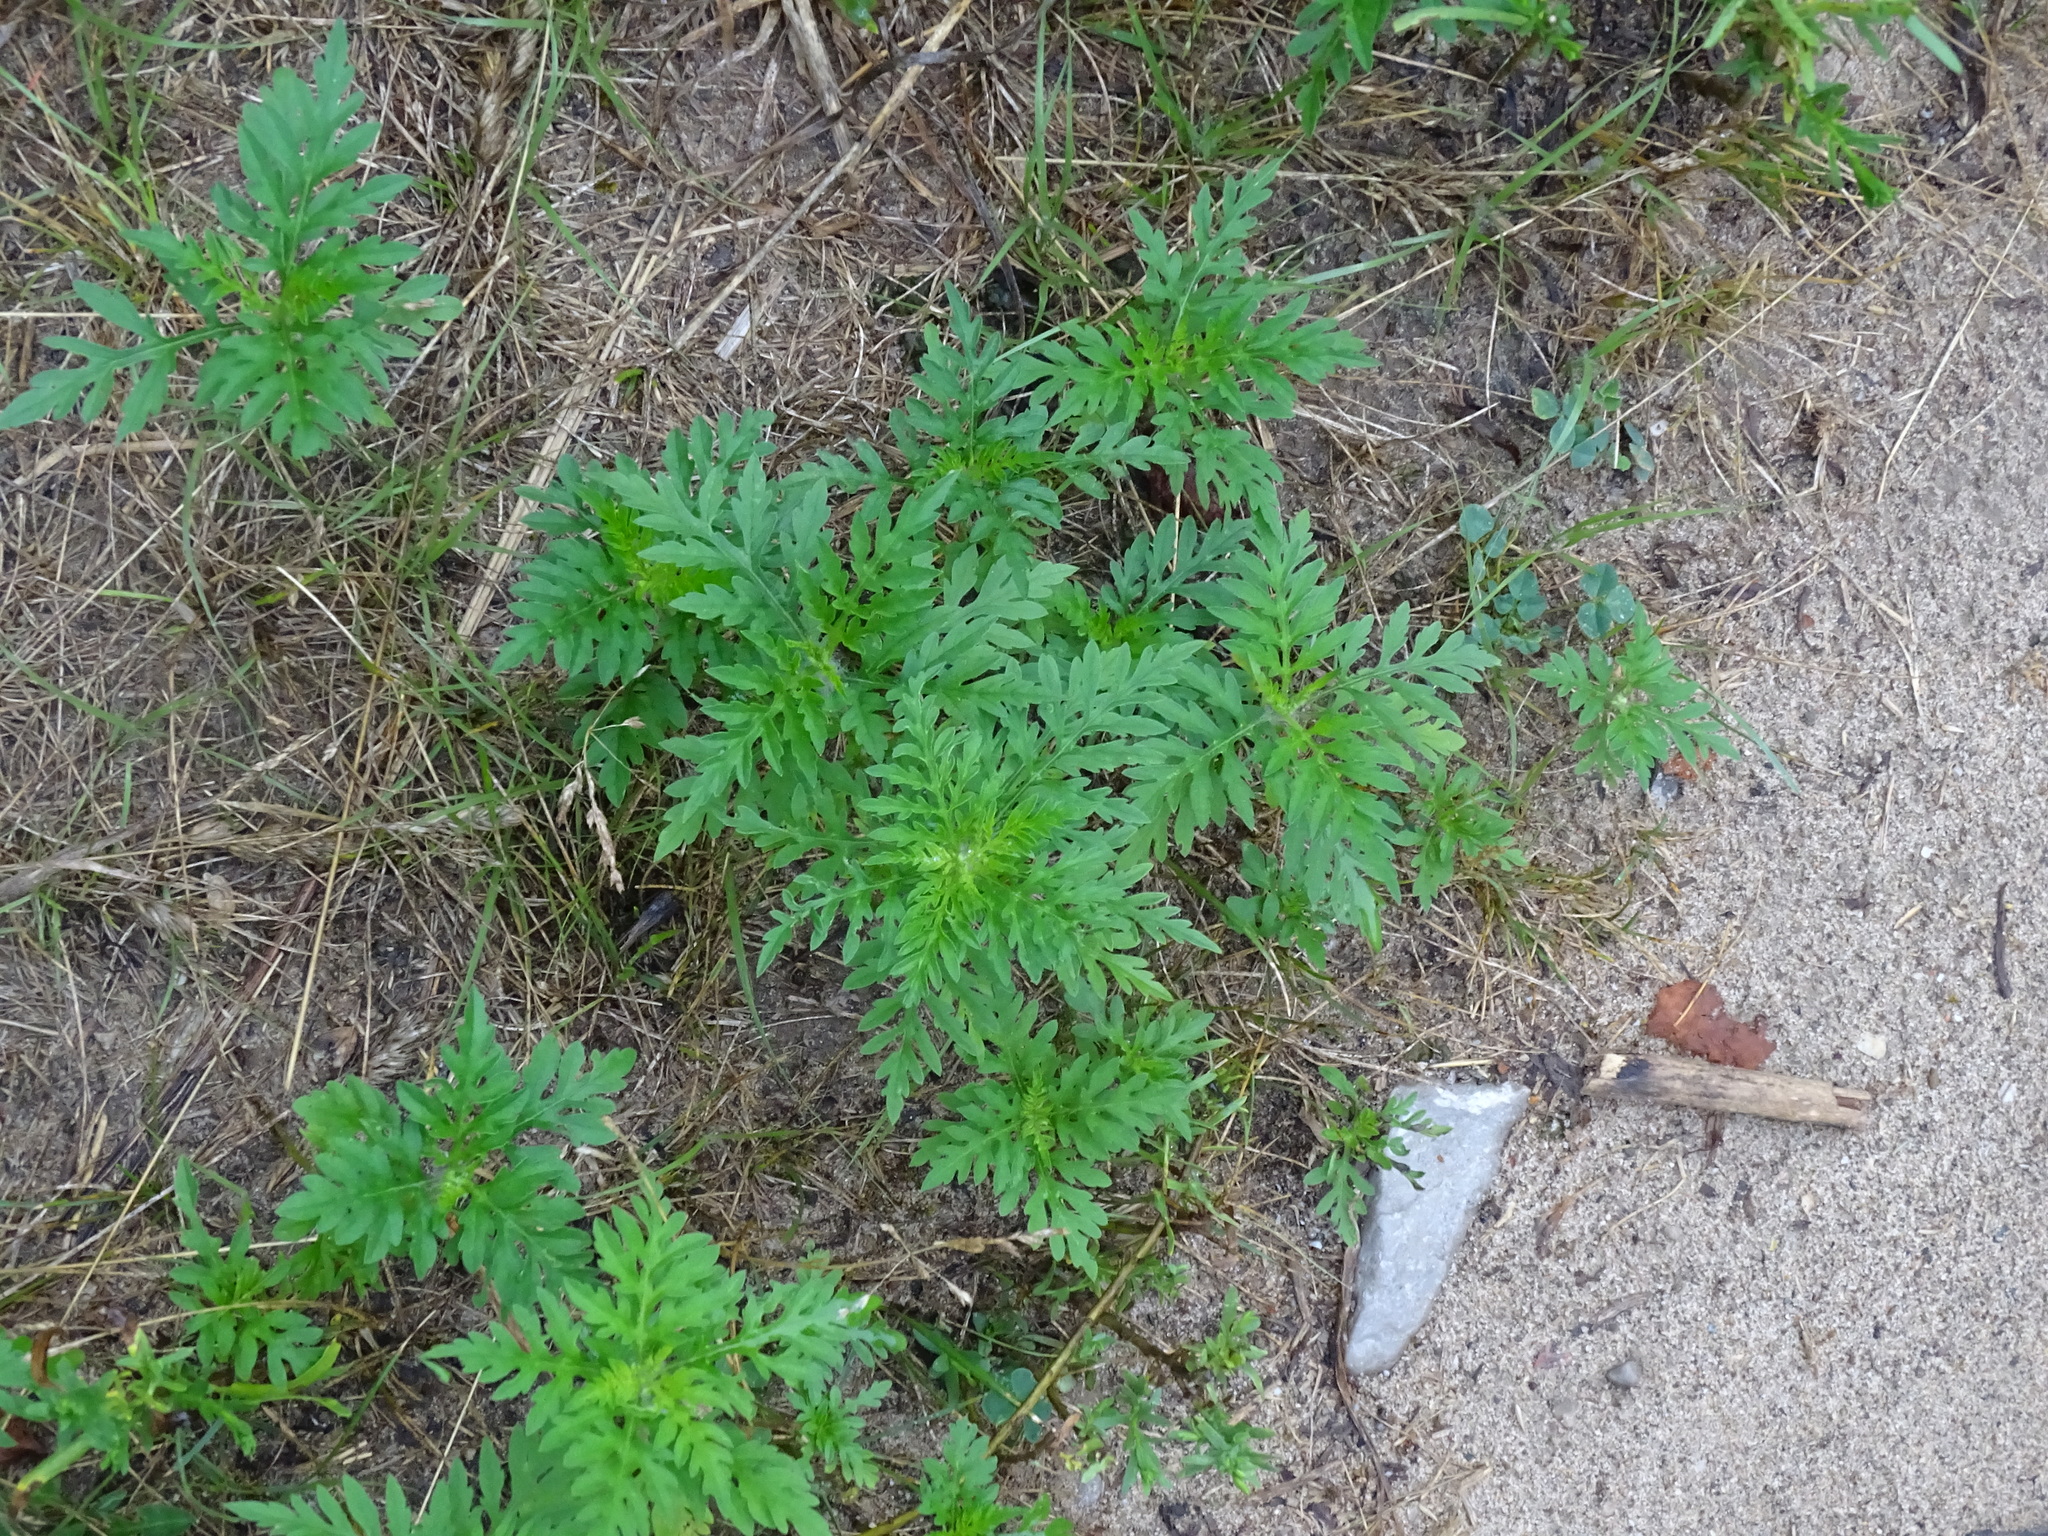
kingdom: Plantae
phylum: Tracheophyta
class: Magnoliopsida
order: Asterales
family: Asteraceae
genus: Ambrosia
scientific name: Ambrosia artemisiifolia
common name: Annual ragweed
